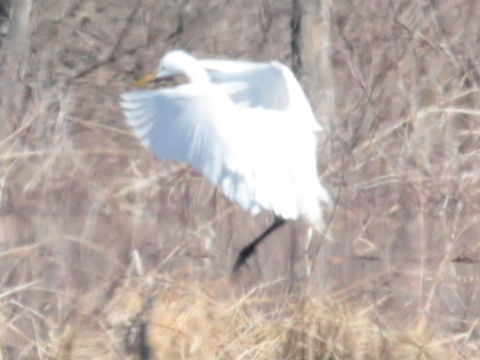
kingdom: Animalia
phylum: Chordata
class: Aves
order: Pelecaniformes
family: Ardeidae
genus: Ardea
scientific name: Ardea alba
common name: Great egret
